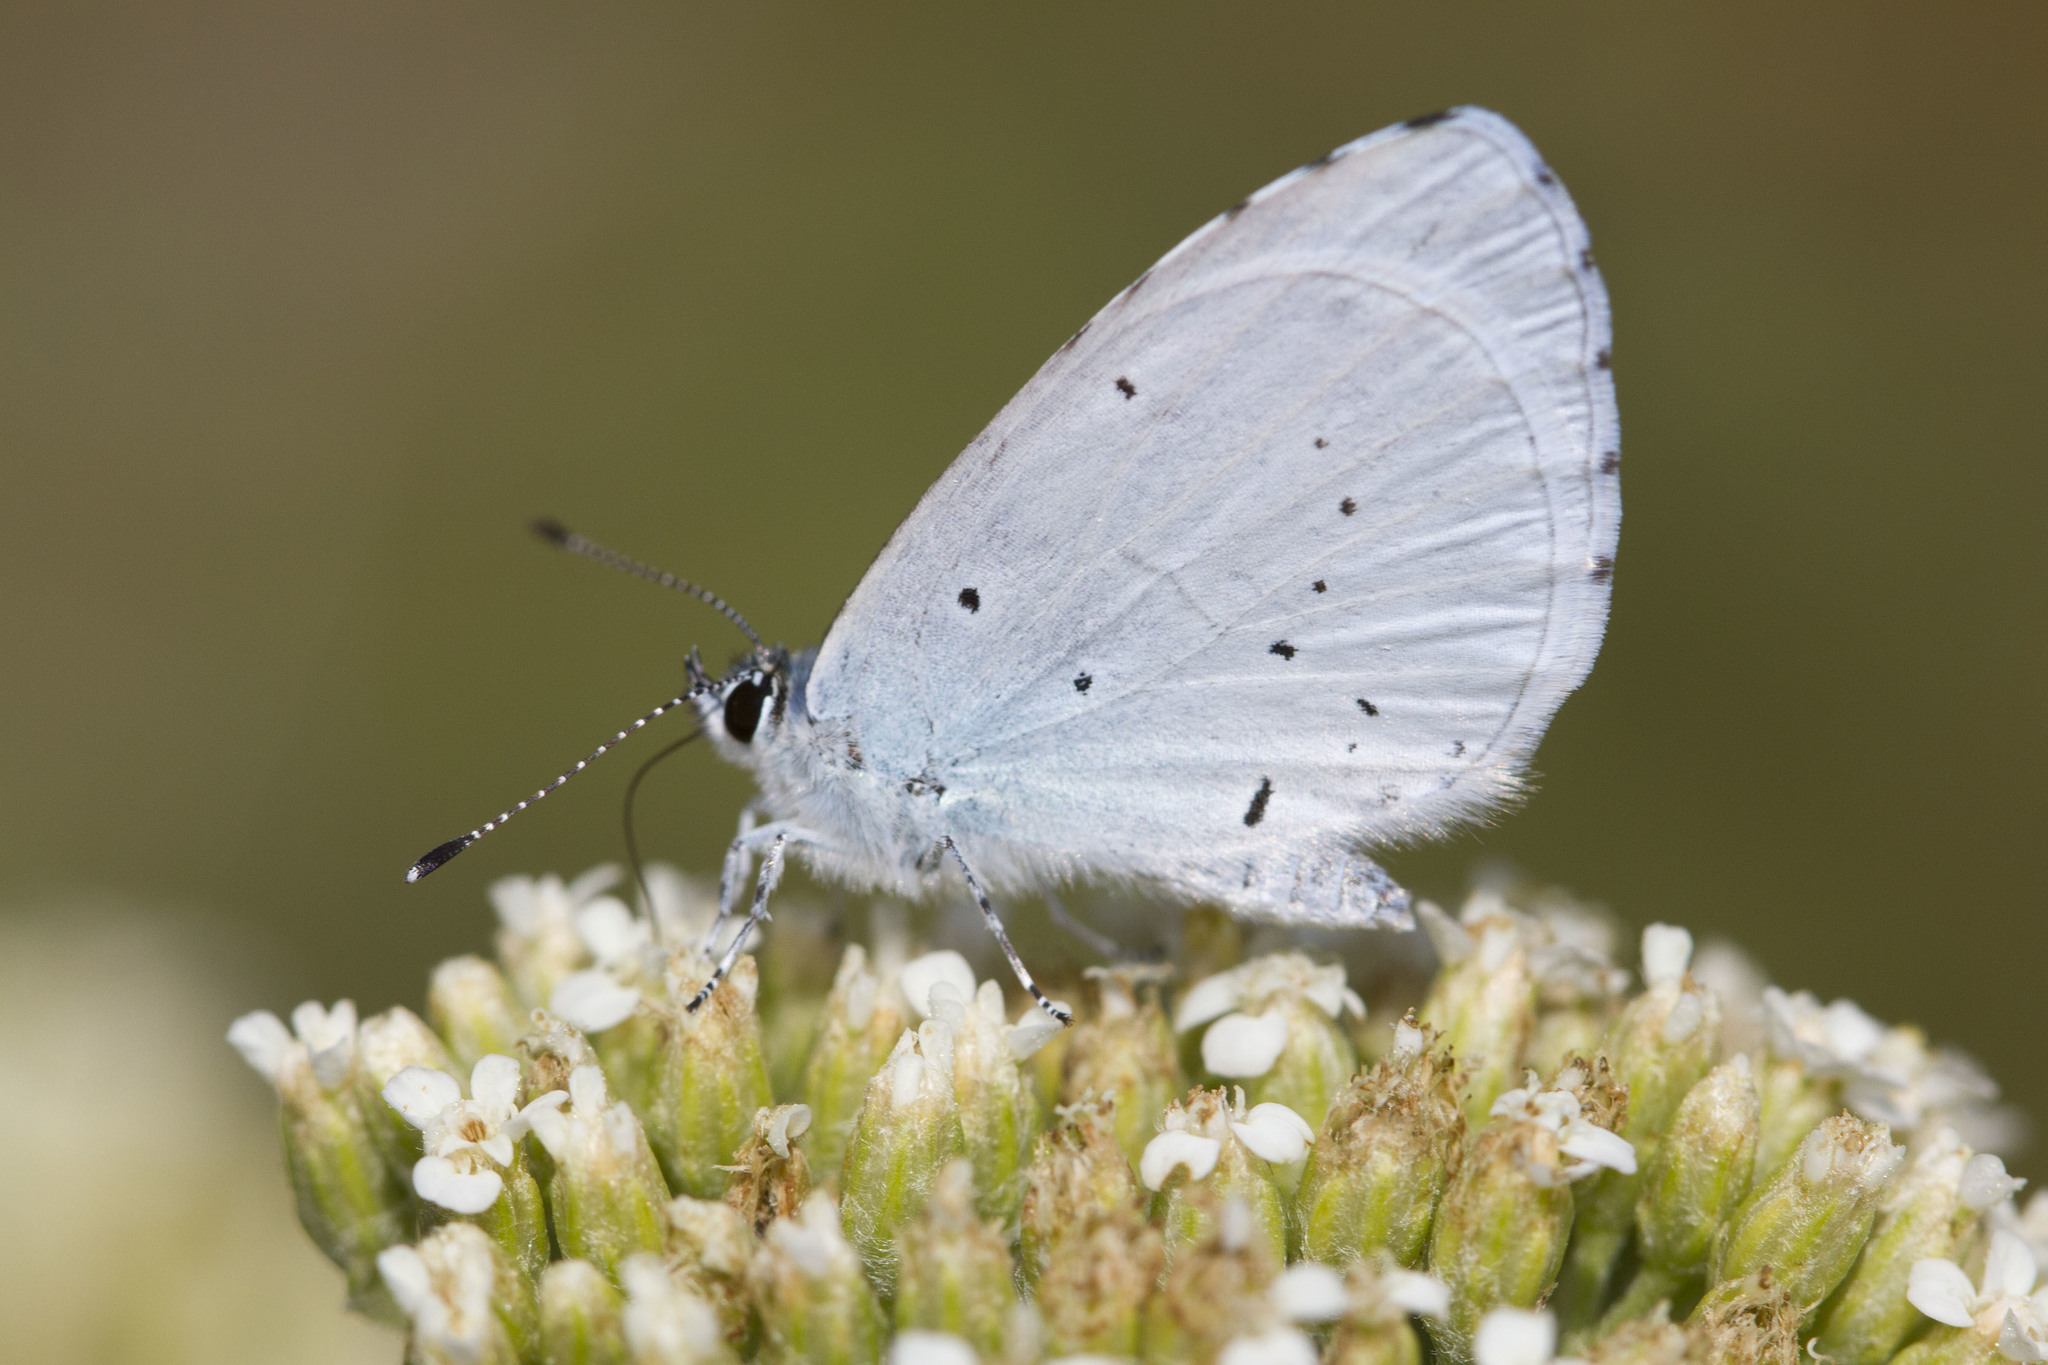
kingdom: Animalia
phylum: Arthropoda
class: Insecta
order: Lepidoptera
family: Lycaenidae
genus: Celastrina
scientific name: Celastrina argiolus
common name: Holly blue
